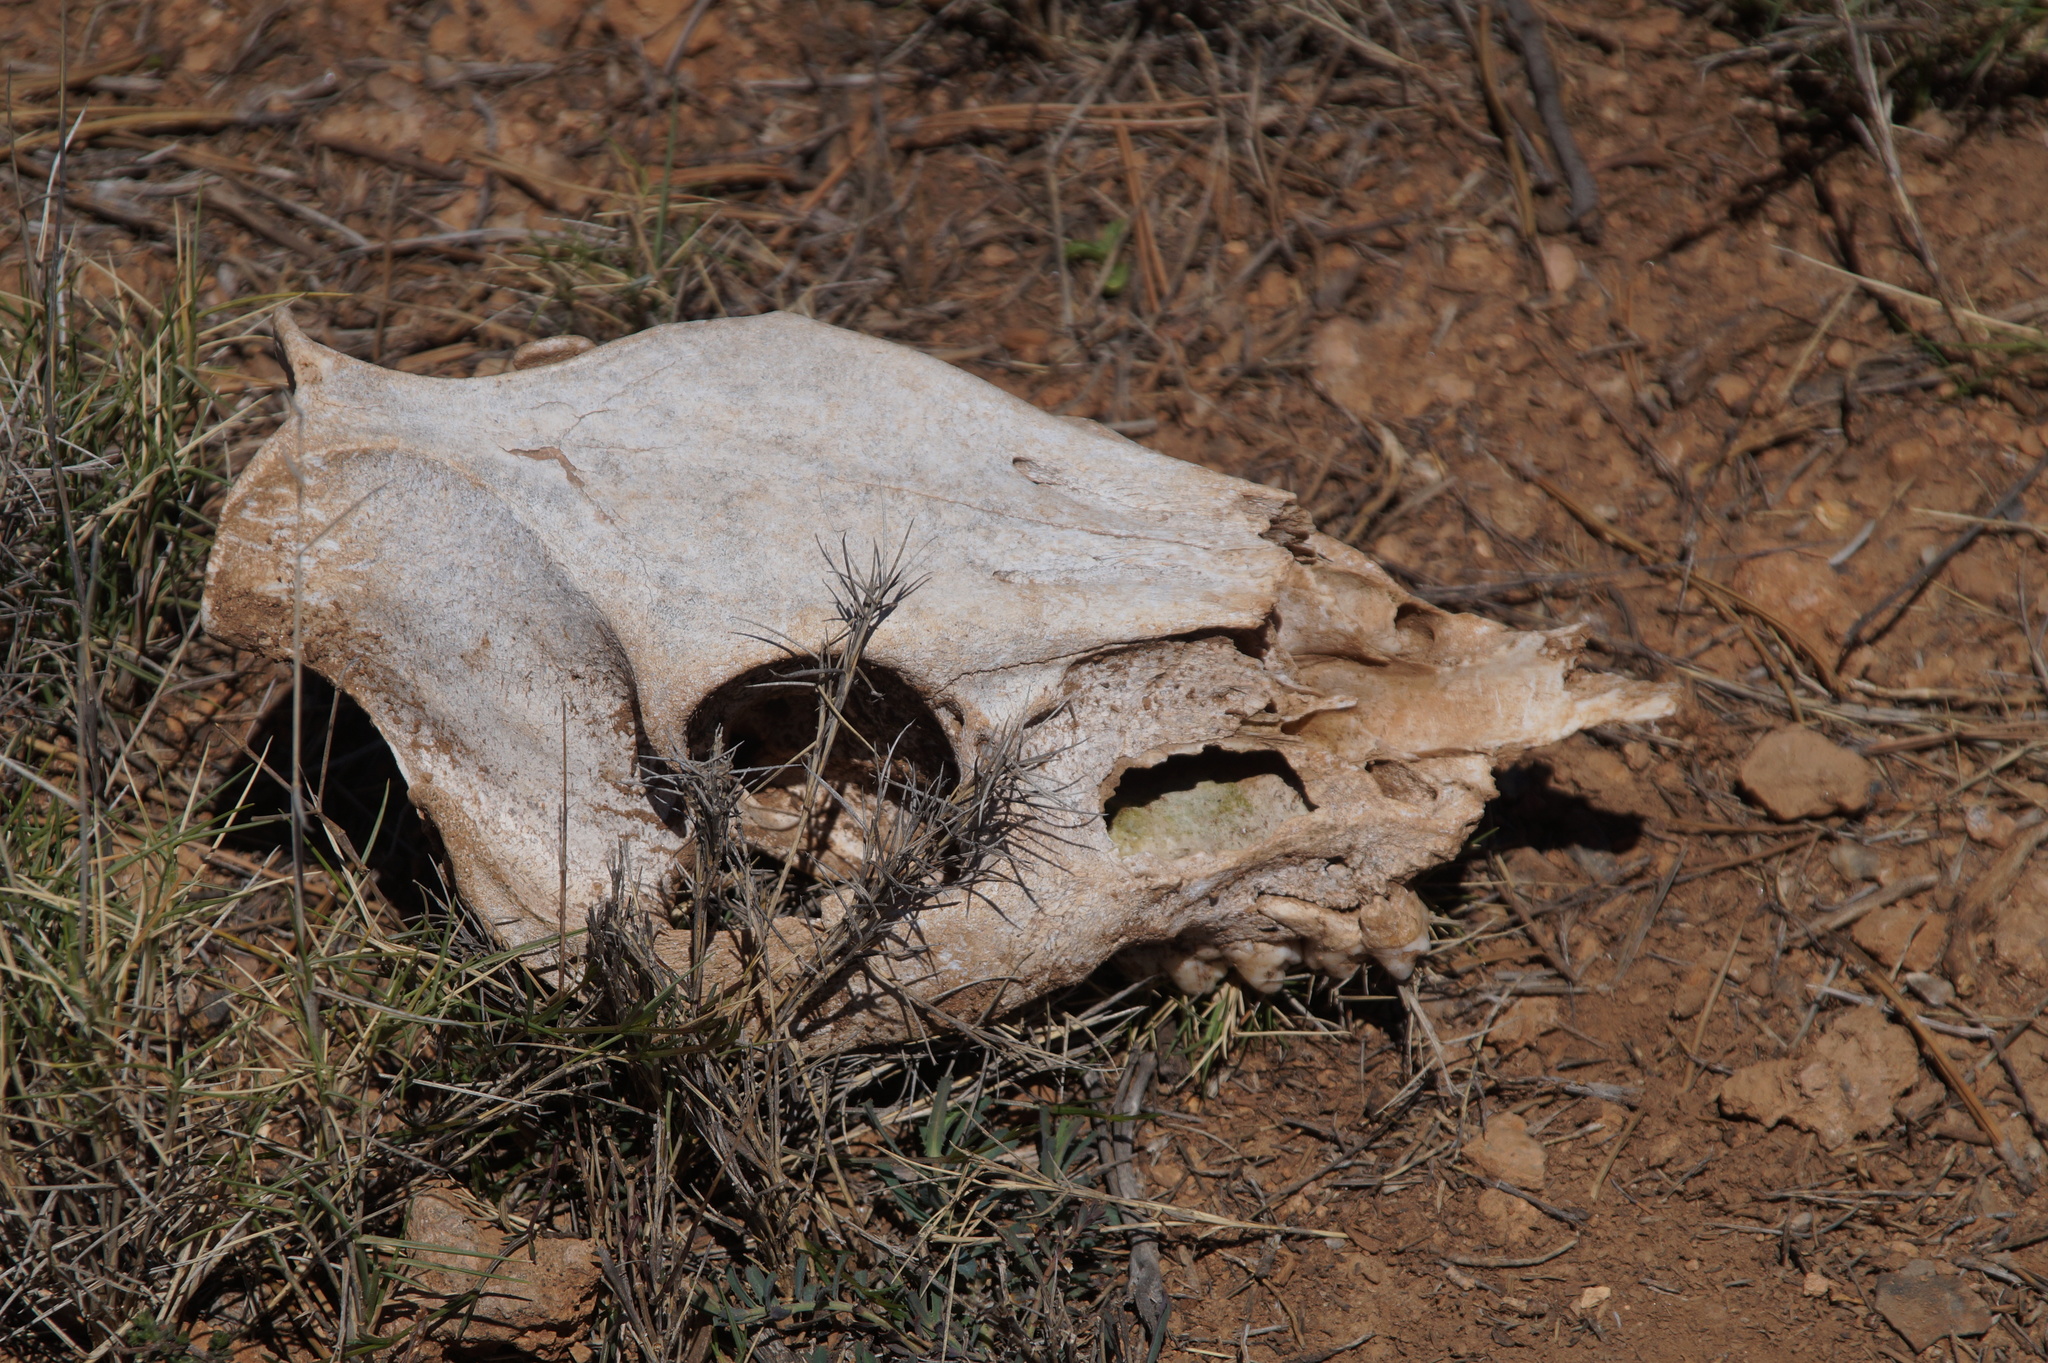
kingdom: Animalia
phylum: Chordata
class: Mammalia
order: Artiodactyla
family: Suidae
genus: Sus
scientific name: Sus scrofa
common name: Wild boar
